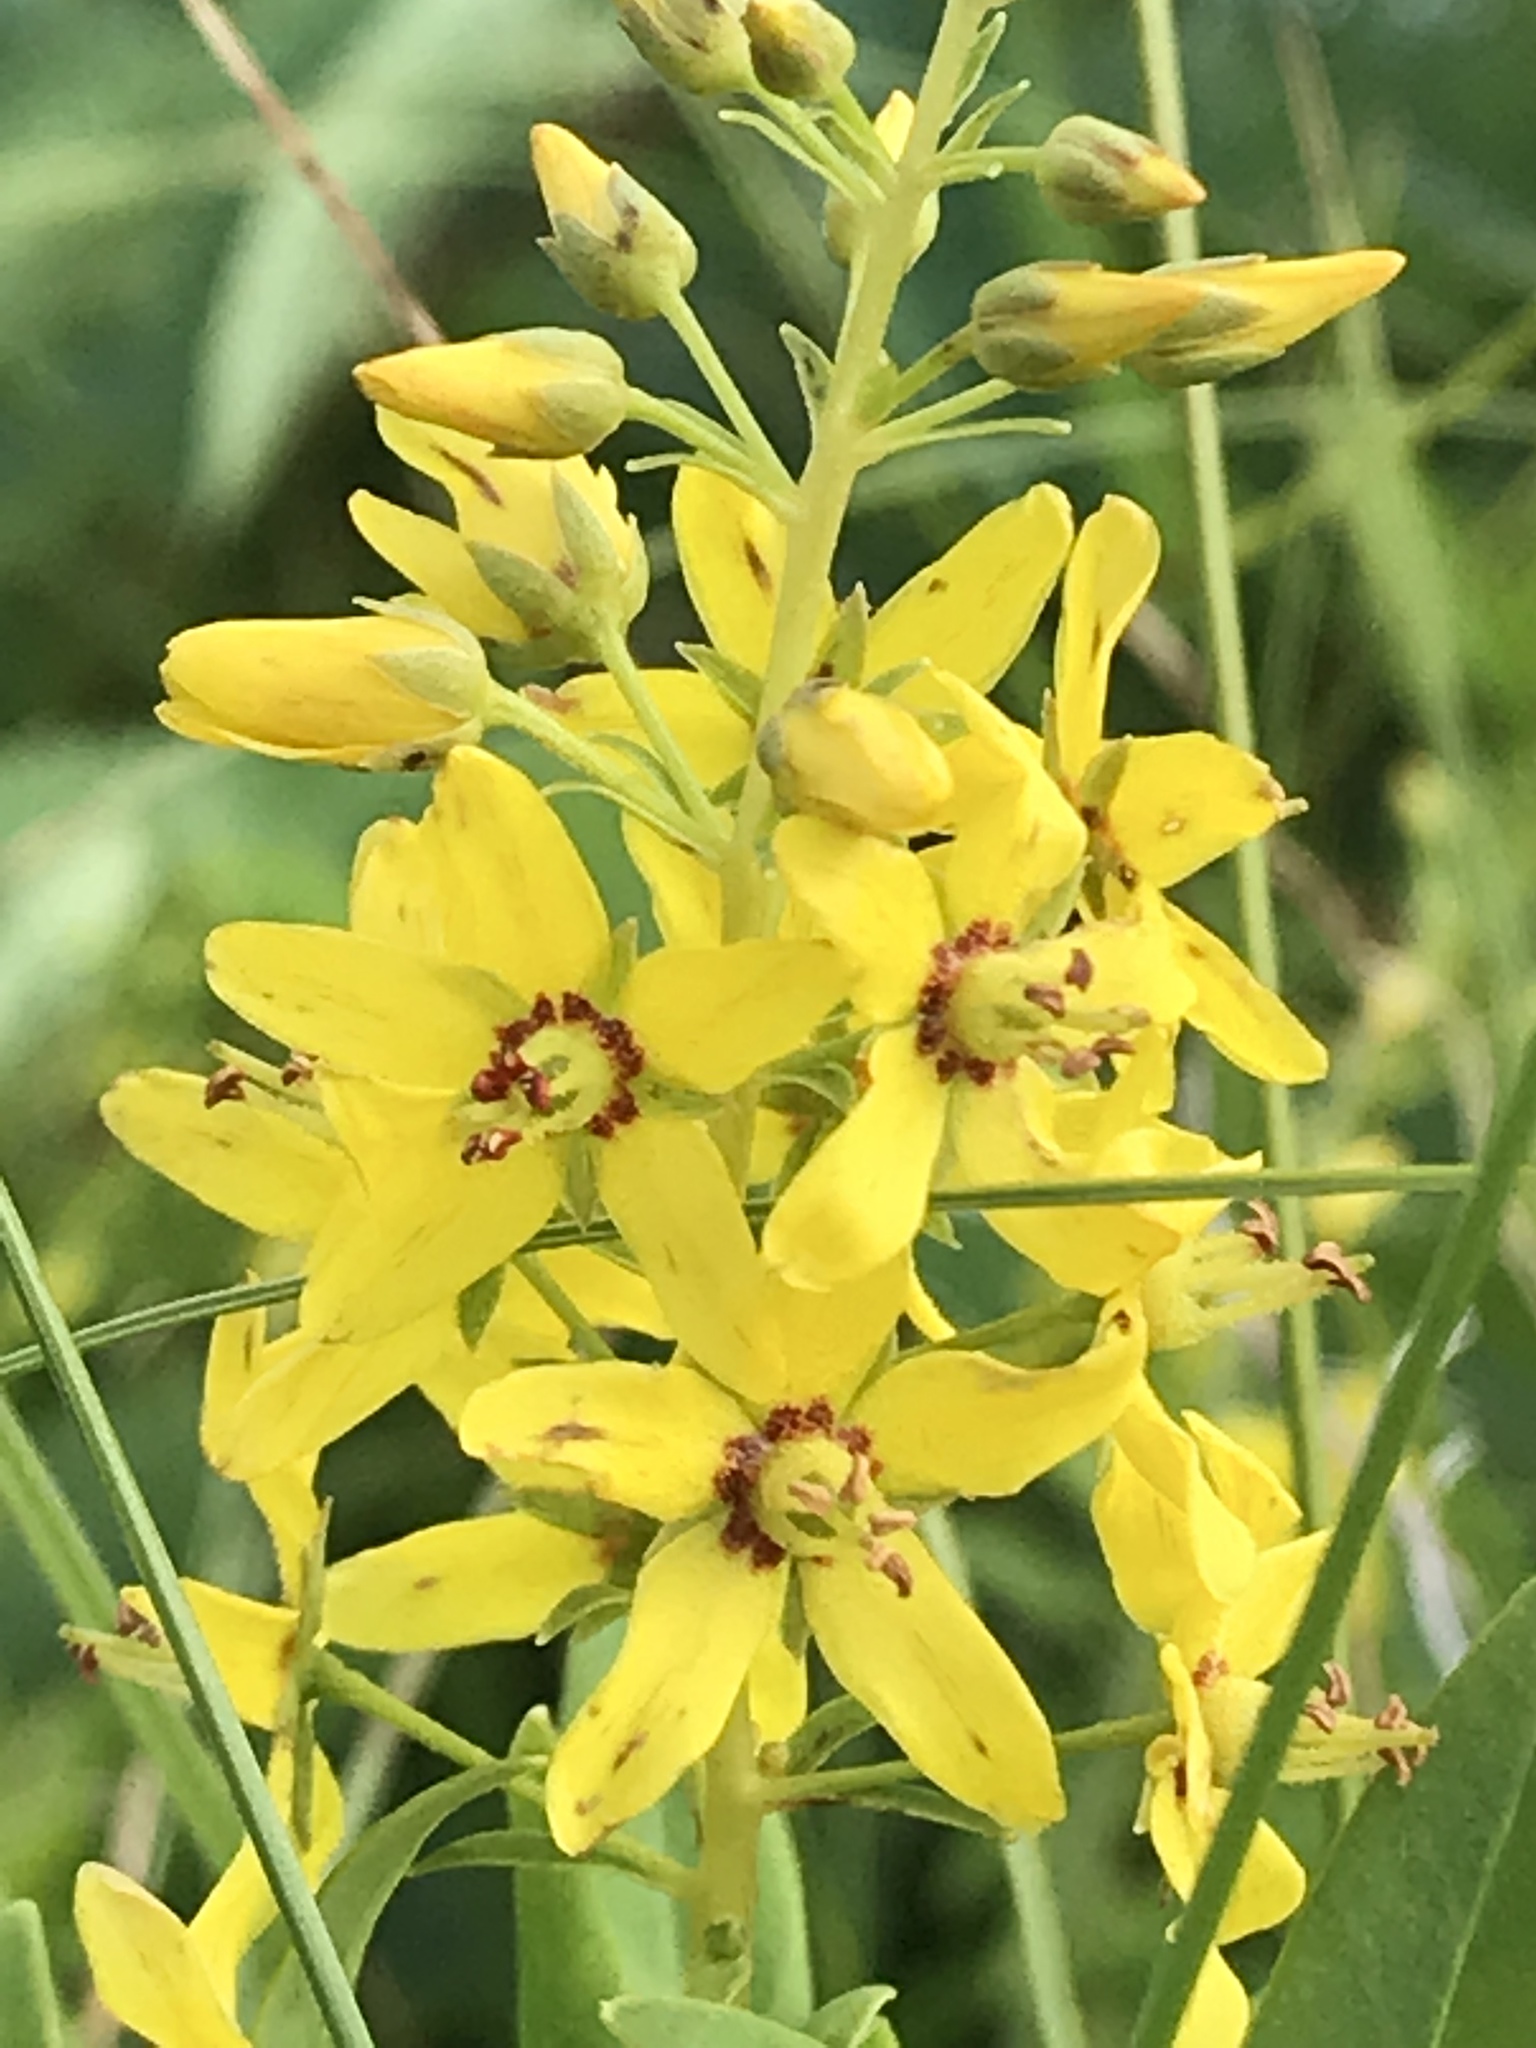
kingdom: Plantae
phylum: Tracheophyta
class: Magnoliopsida
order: Ericales
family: Primulaceae
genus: Lysimachia
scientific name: Lysimachia terrestris
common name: Lake loosestrife
